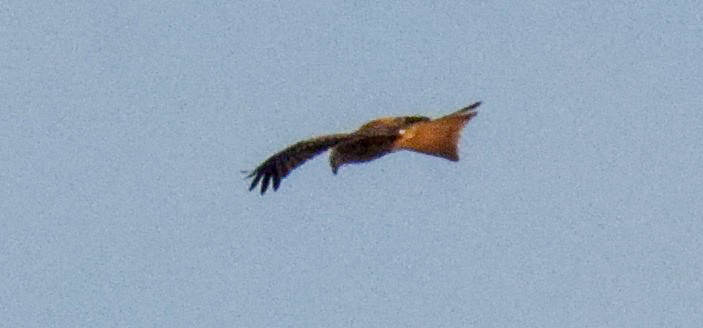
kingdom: Animalia
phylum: Chordata
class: Aves
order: Accipitriformes
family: Accipitridae
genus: Milvus
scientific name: Milvus milvus
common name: Red kite
